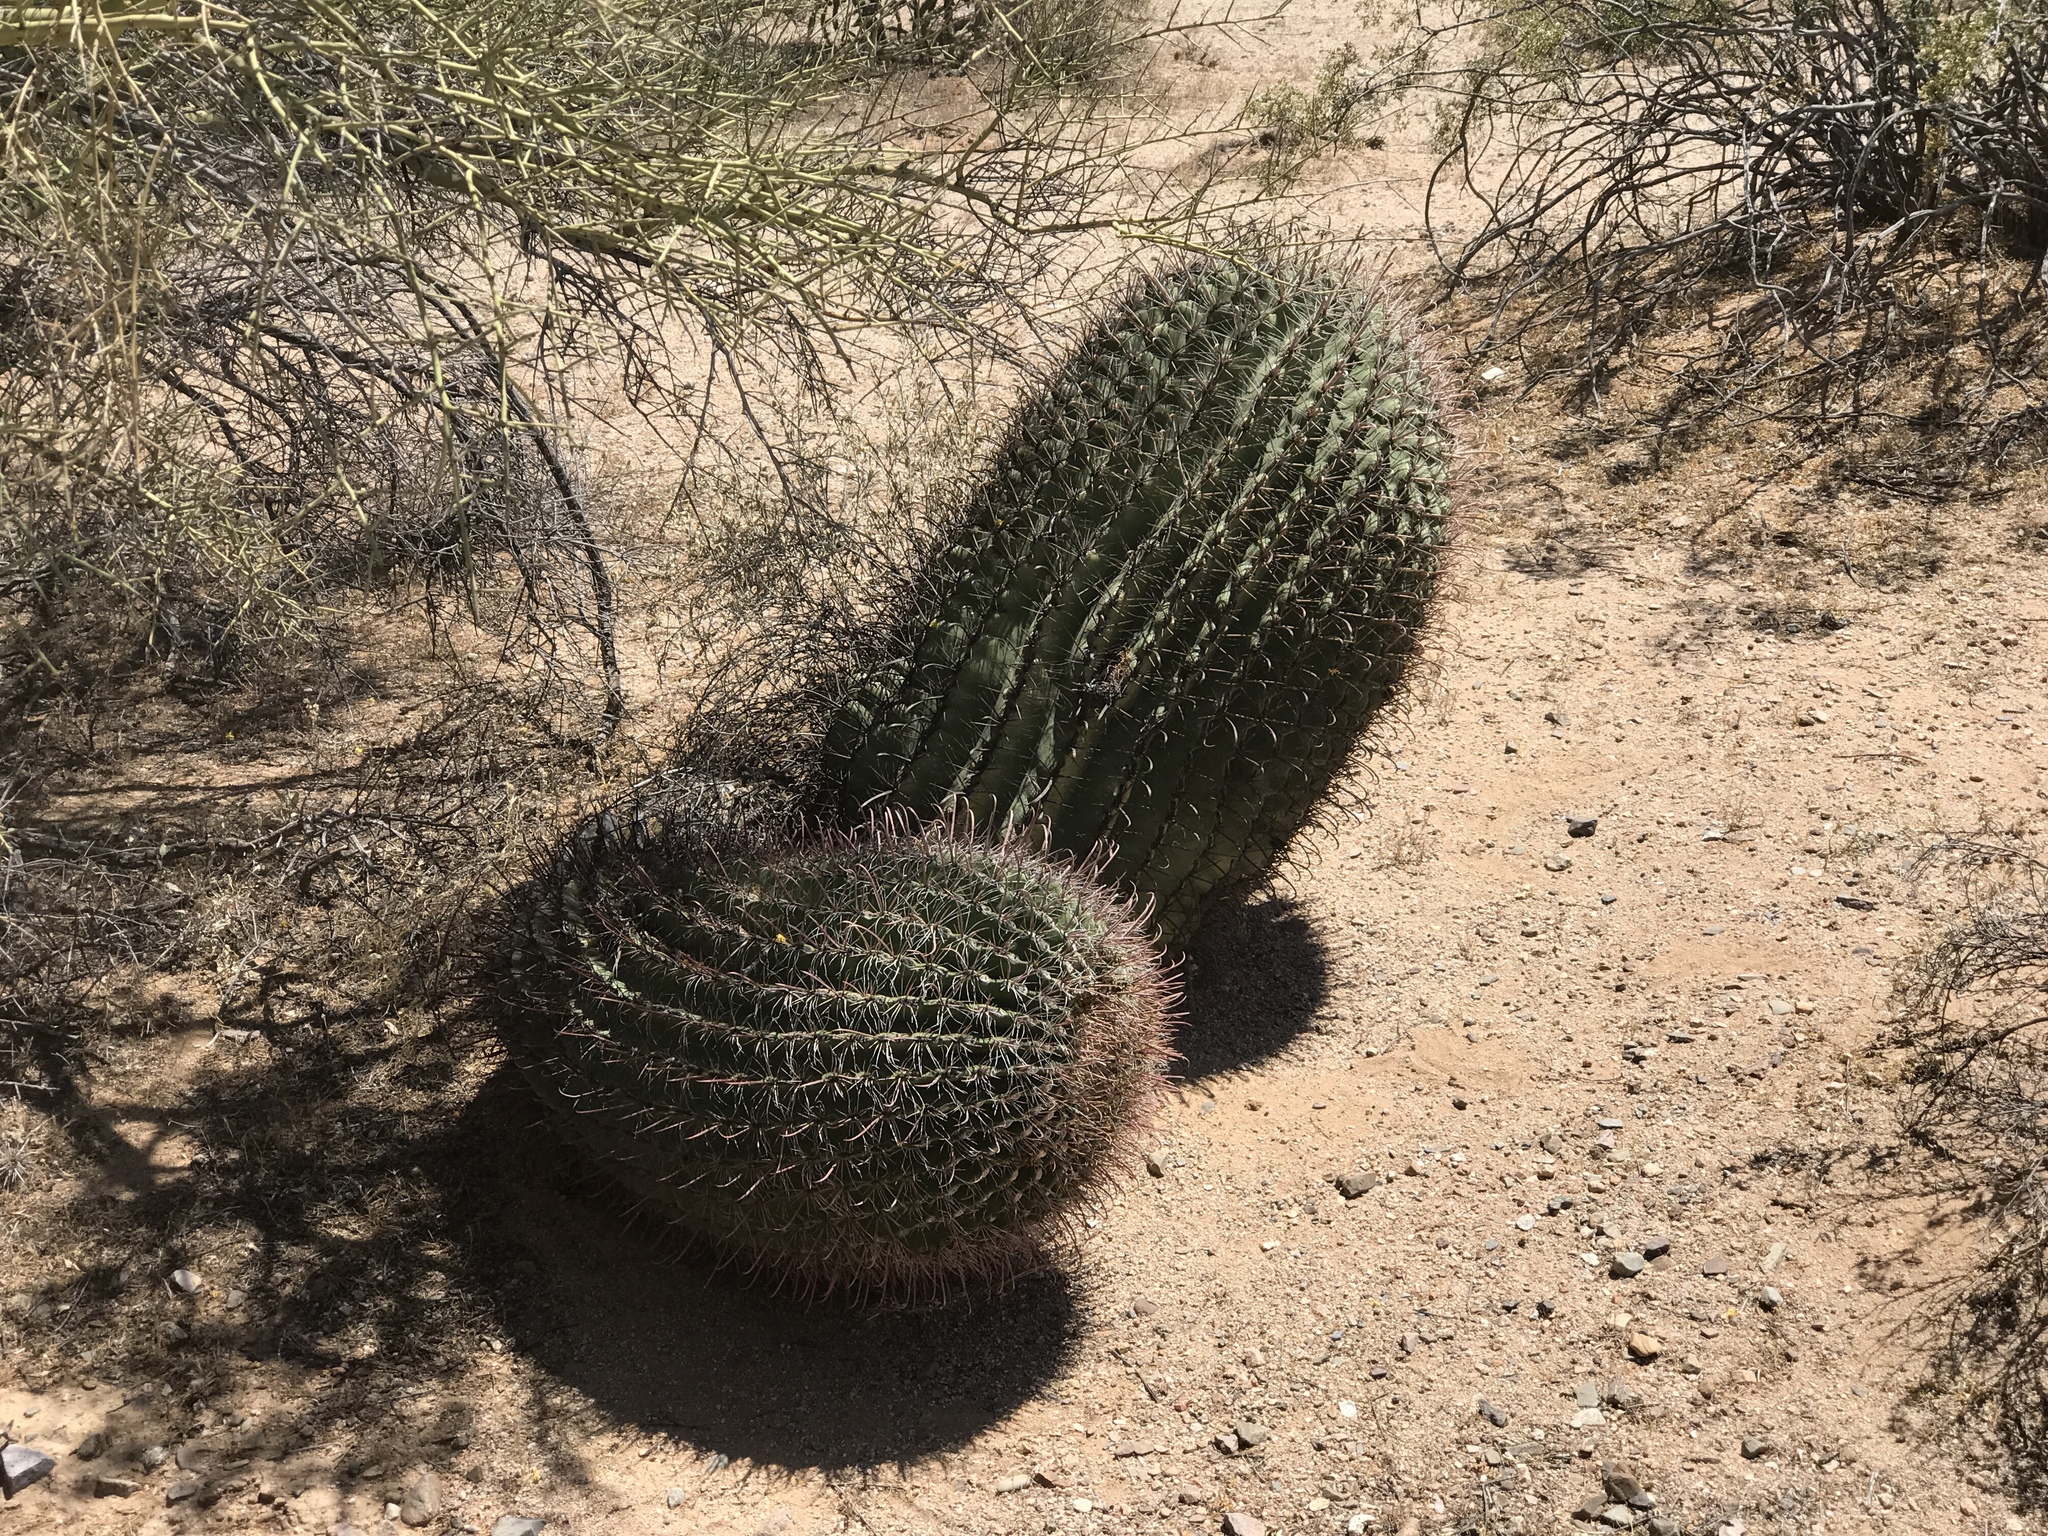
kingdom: Plantae
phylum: Tracheophyta
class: Magnoliopsida
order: Caryophyllales
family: Cactaceae
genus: Ferocactus
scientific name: Ferocactus wislizeni
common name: Candy barrel cactus
